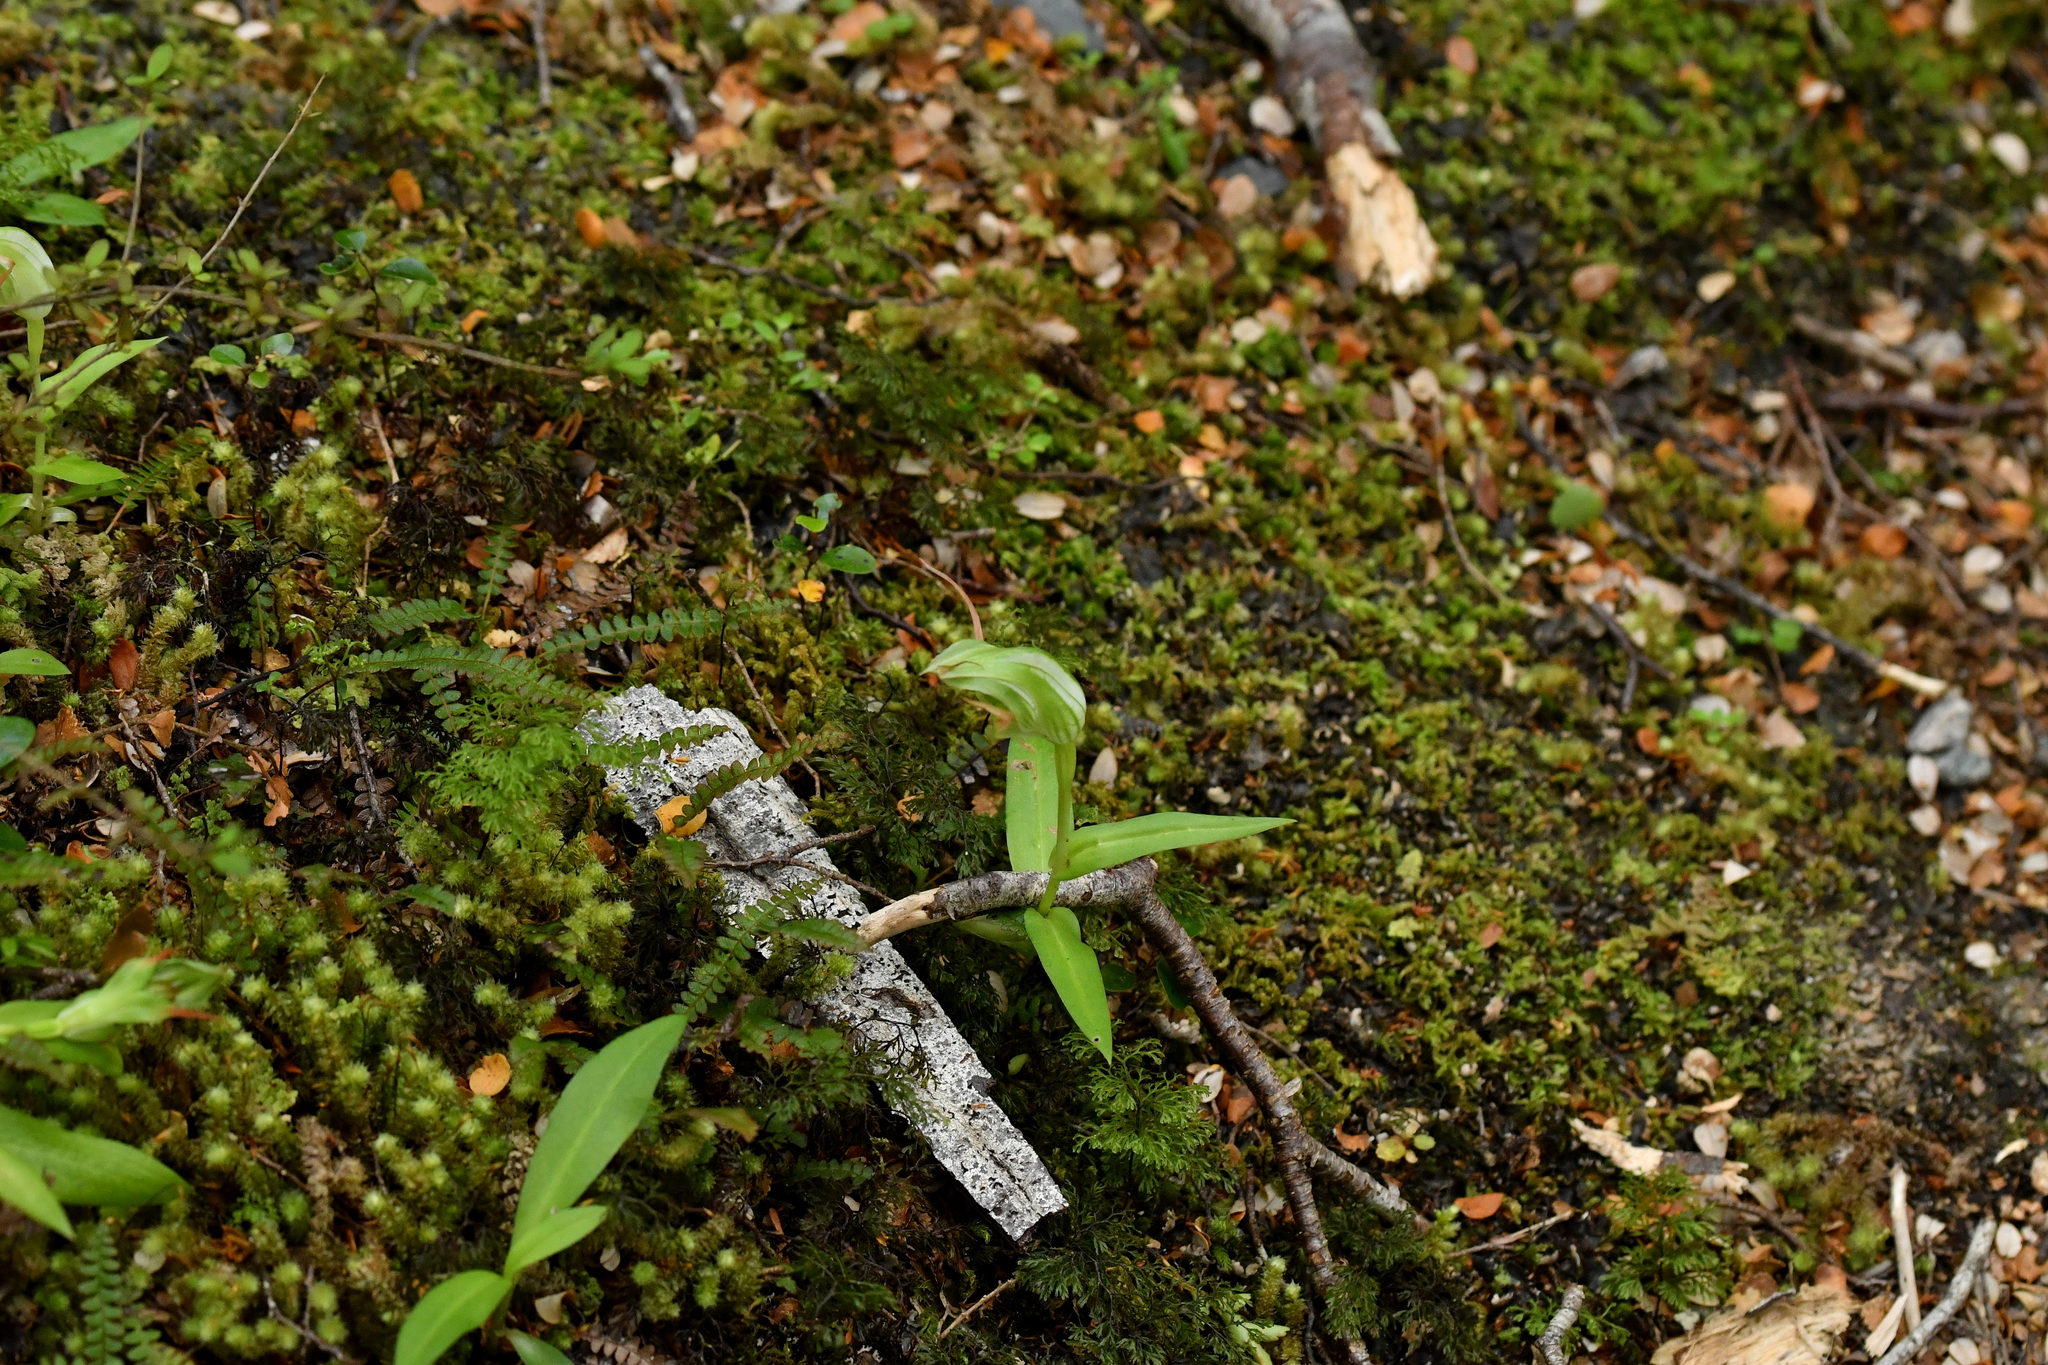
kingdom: Plantae
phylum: Tracheophyta
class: Liliopsida
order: Asparagales
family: Orchidaceae
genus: Pterostylis
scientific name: Pterostylis australis
